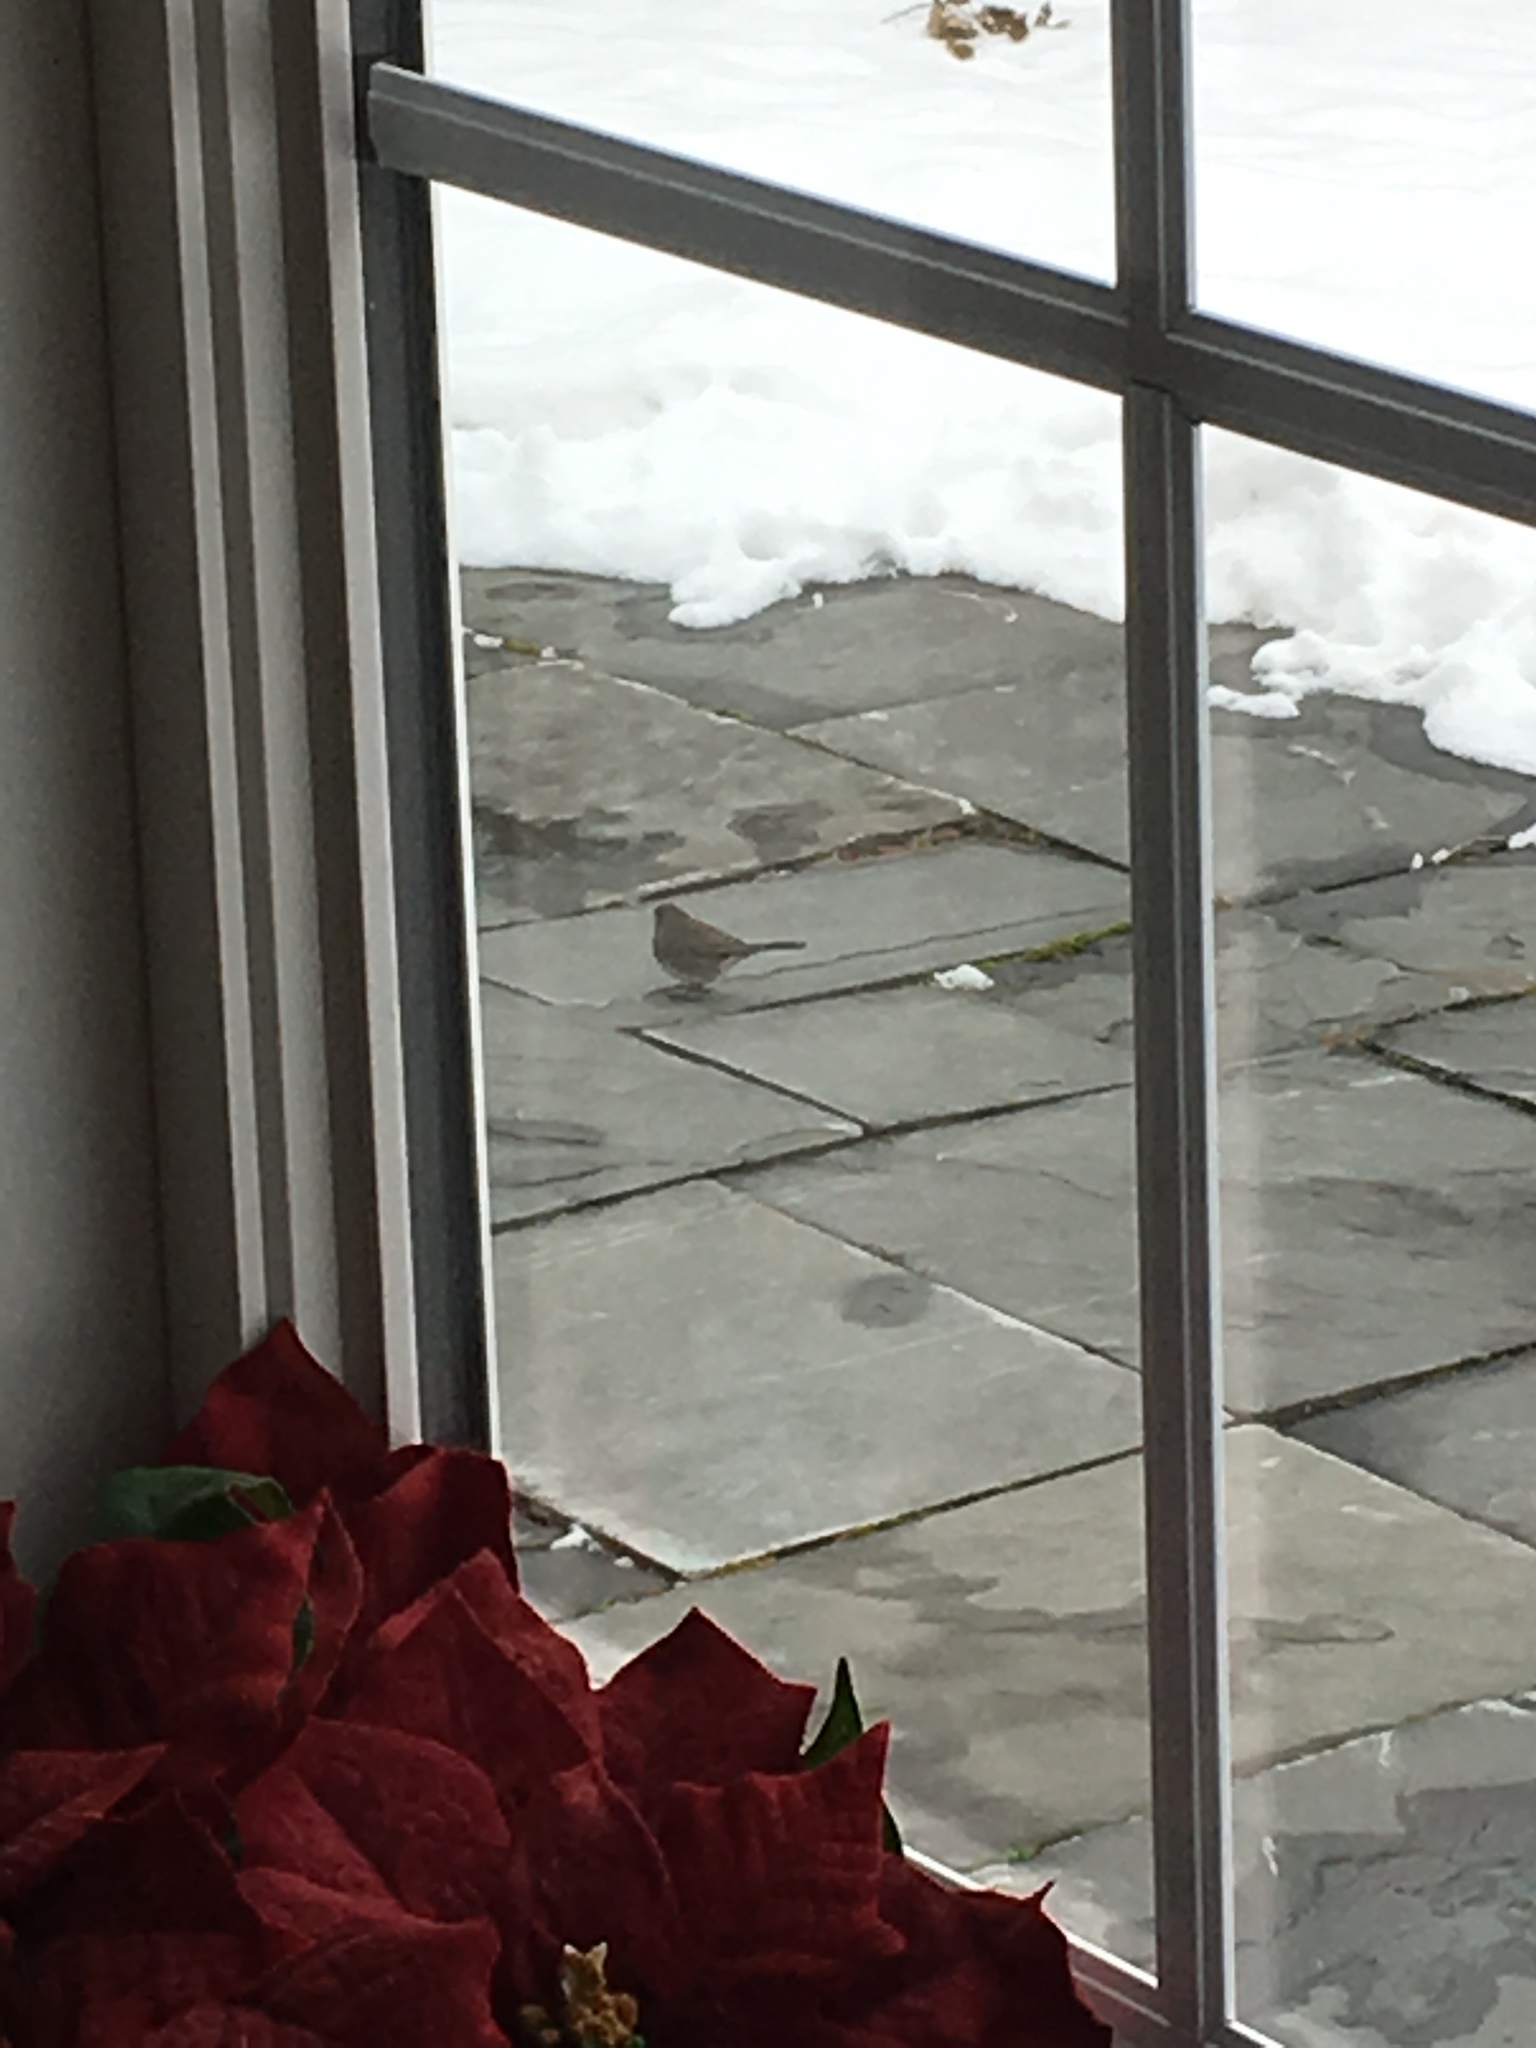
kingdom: Animalia
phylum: Chordata
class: Aves
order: Passeriformes
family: Passerellidae
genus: Junco
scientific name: Junco hyemalis
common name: Dark-eyed junco
